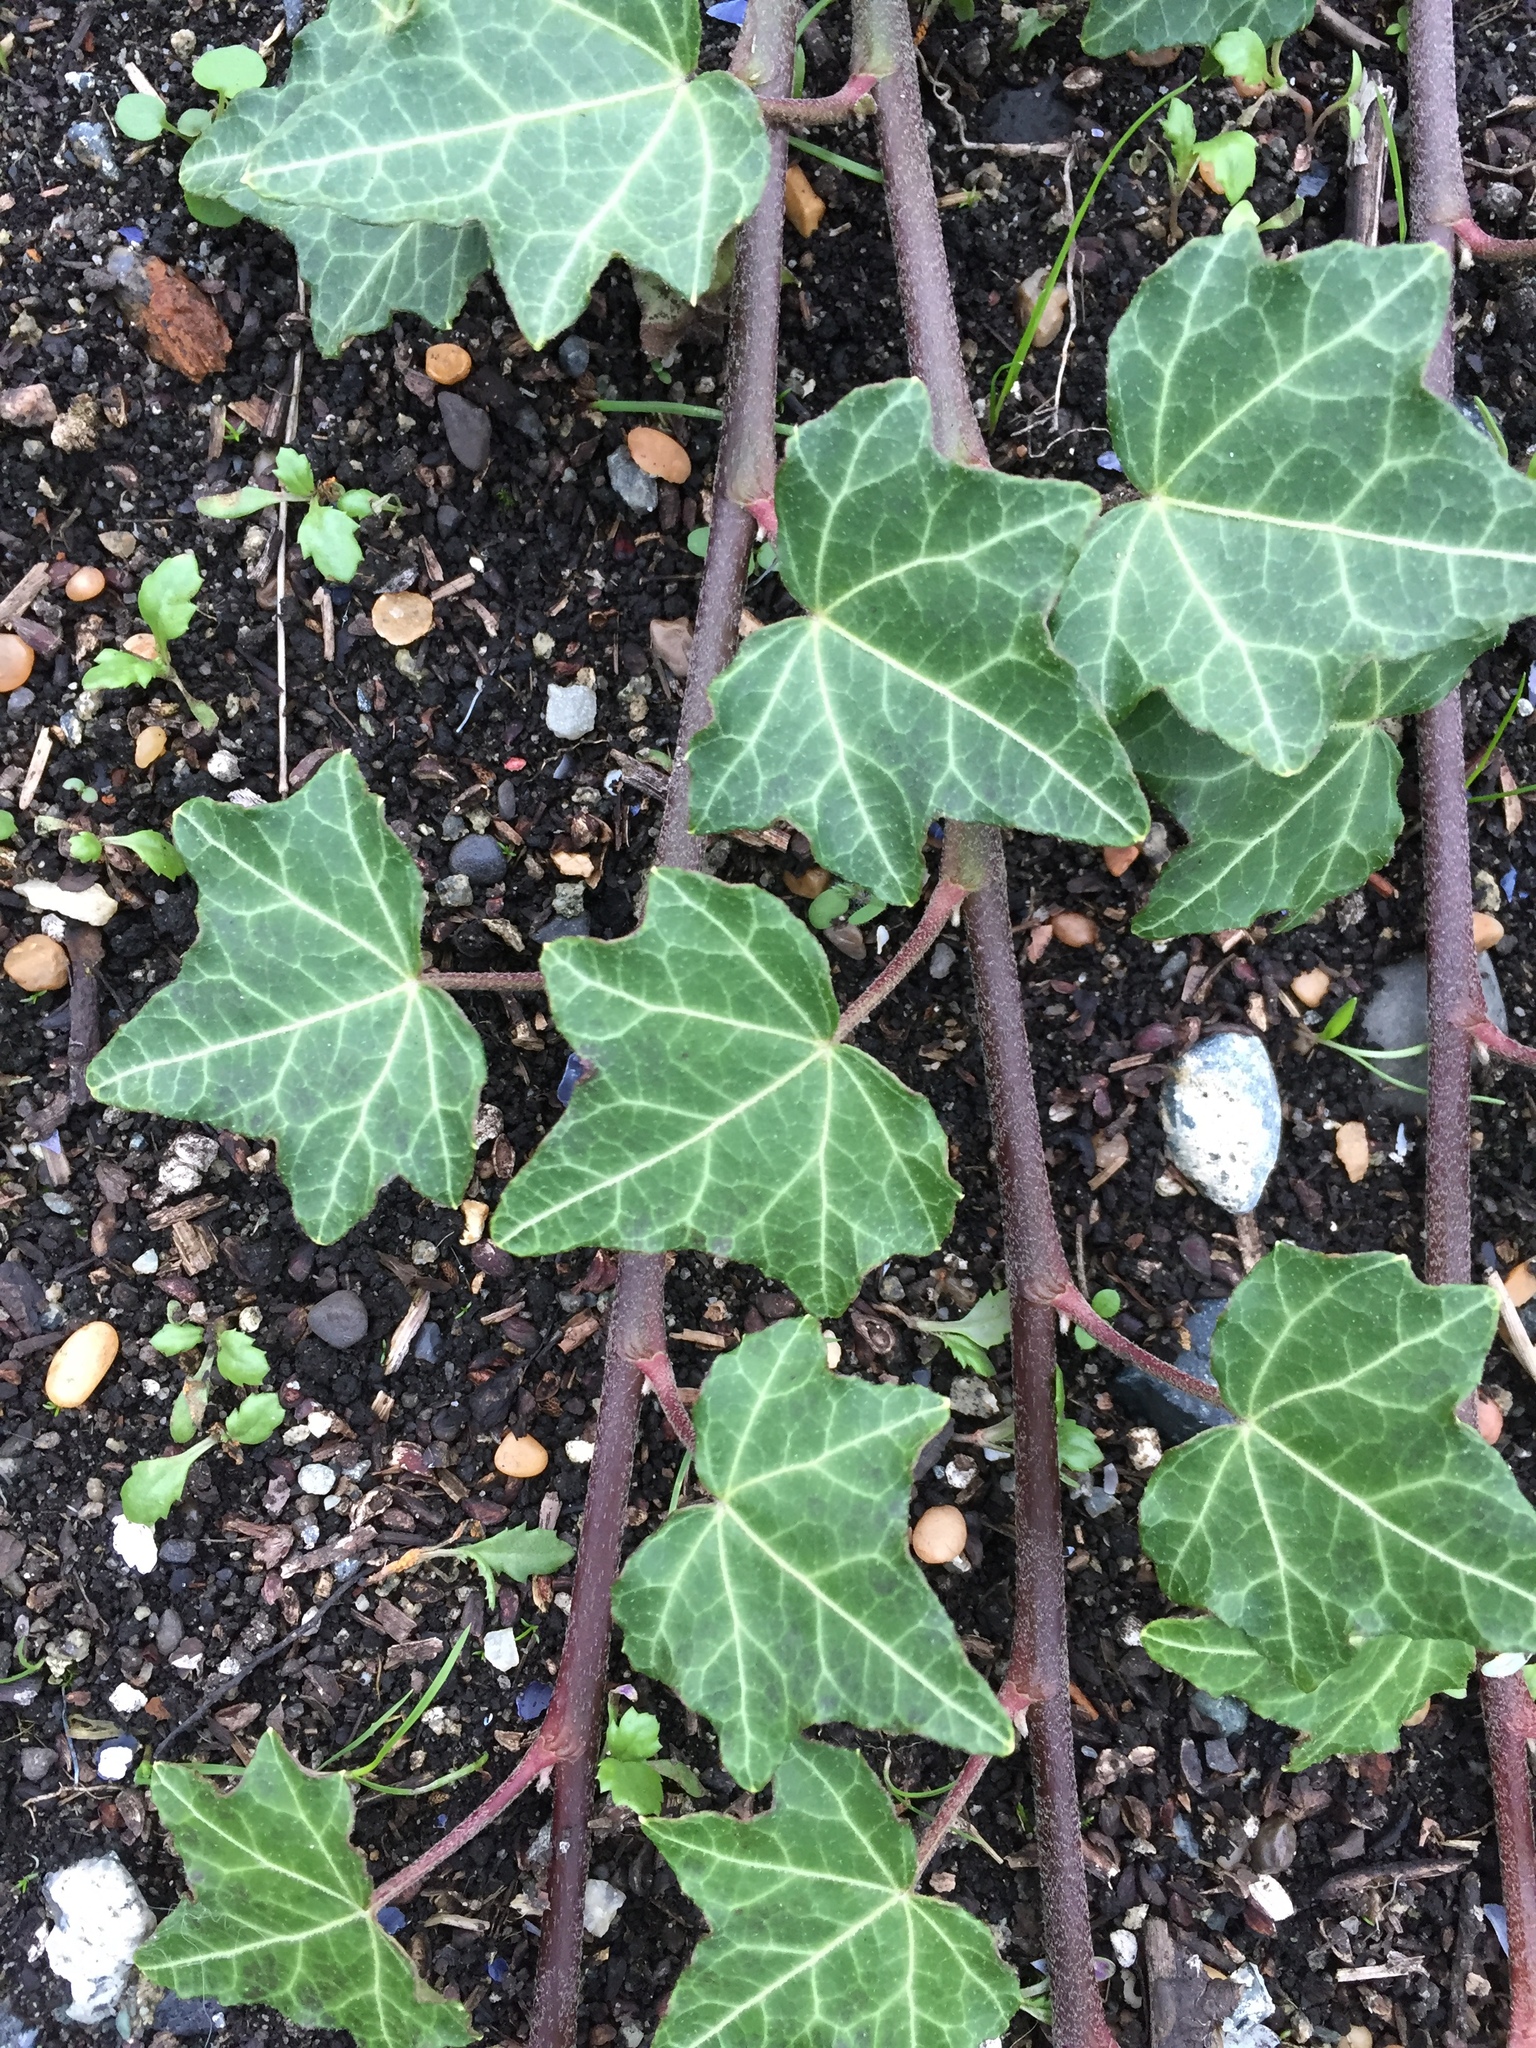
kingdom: Plantae
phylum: Tracheophyta
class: Magnoliopsida
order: Apiales
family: Araliaceae
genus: Hedera
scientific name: Hedera helix
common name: Ivy
